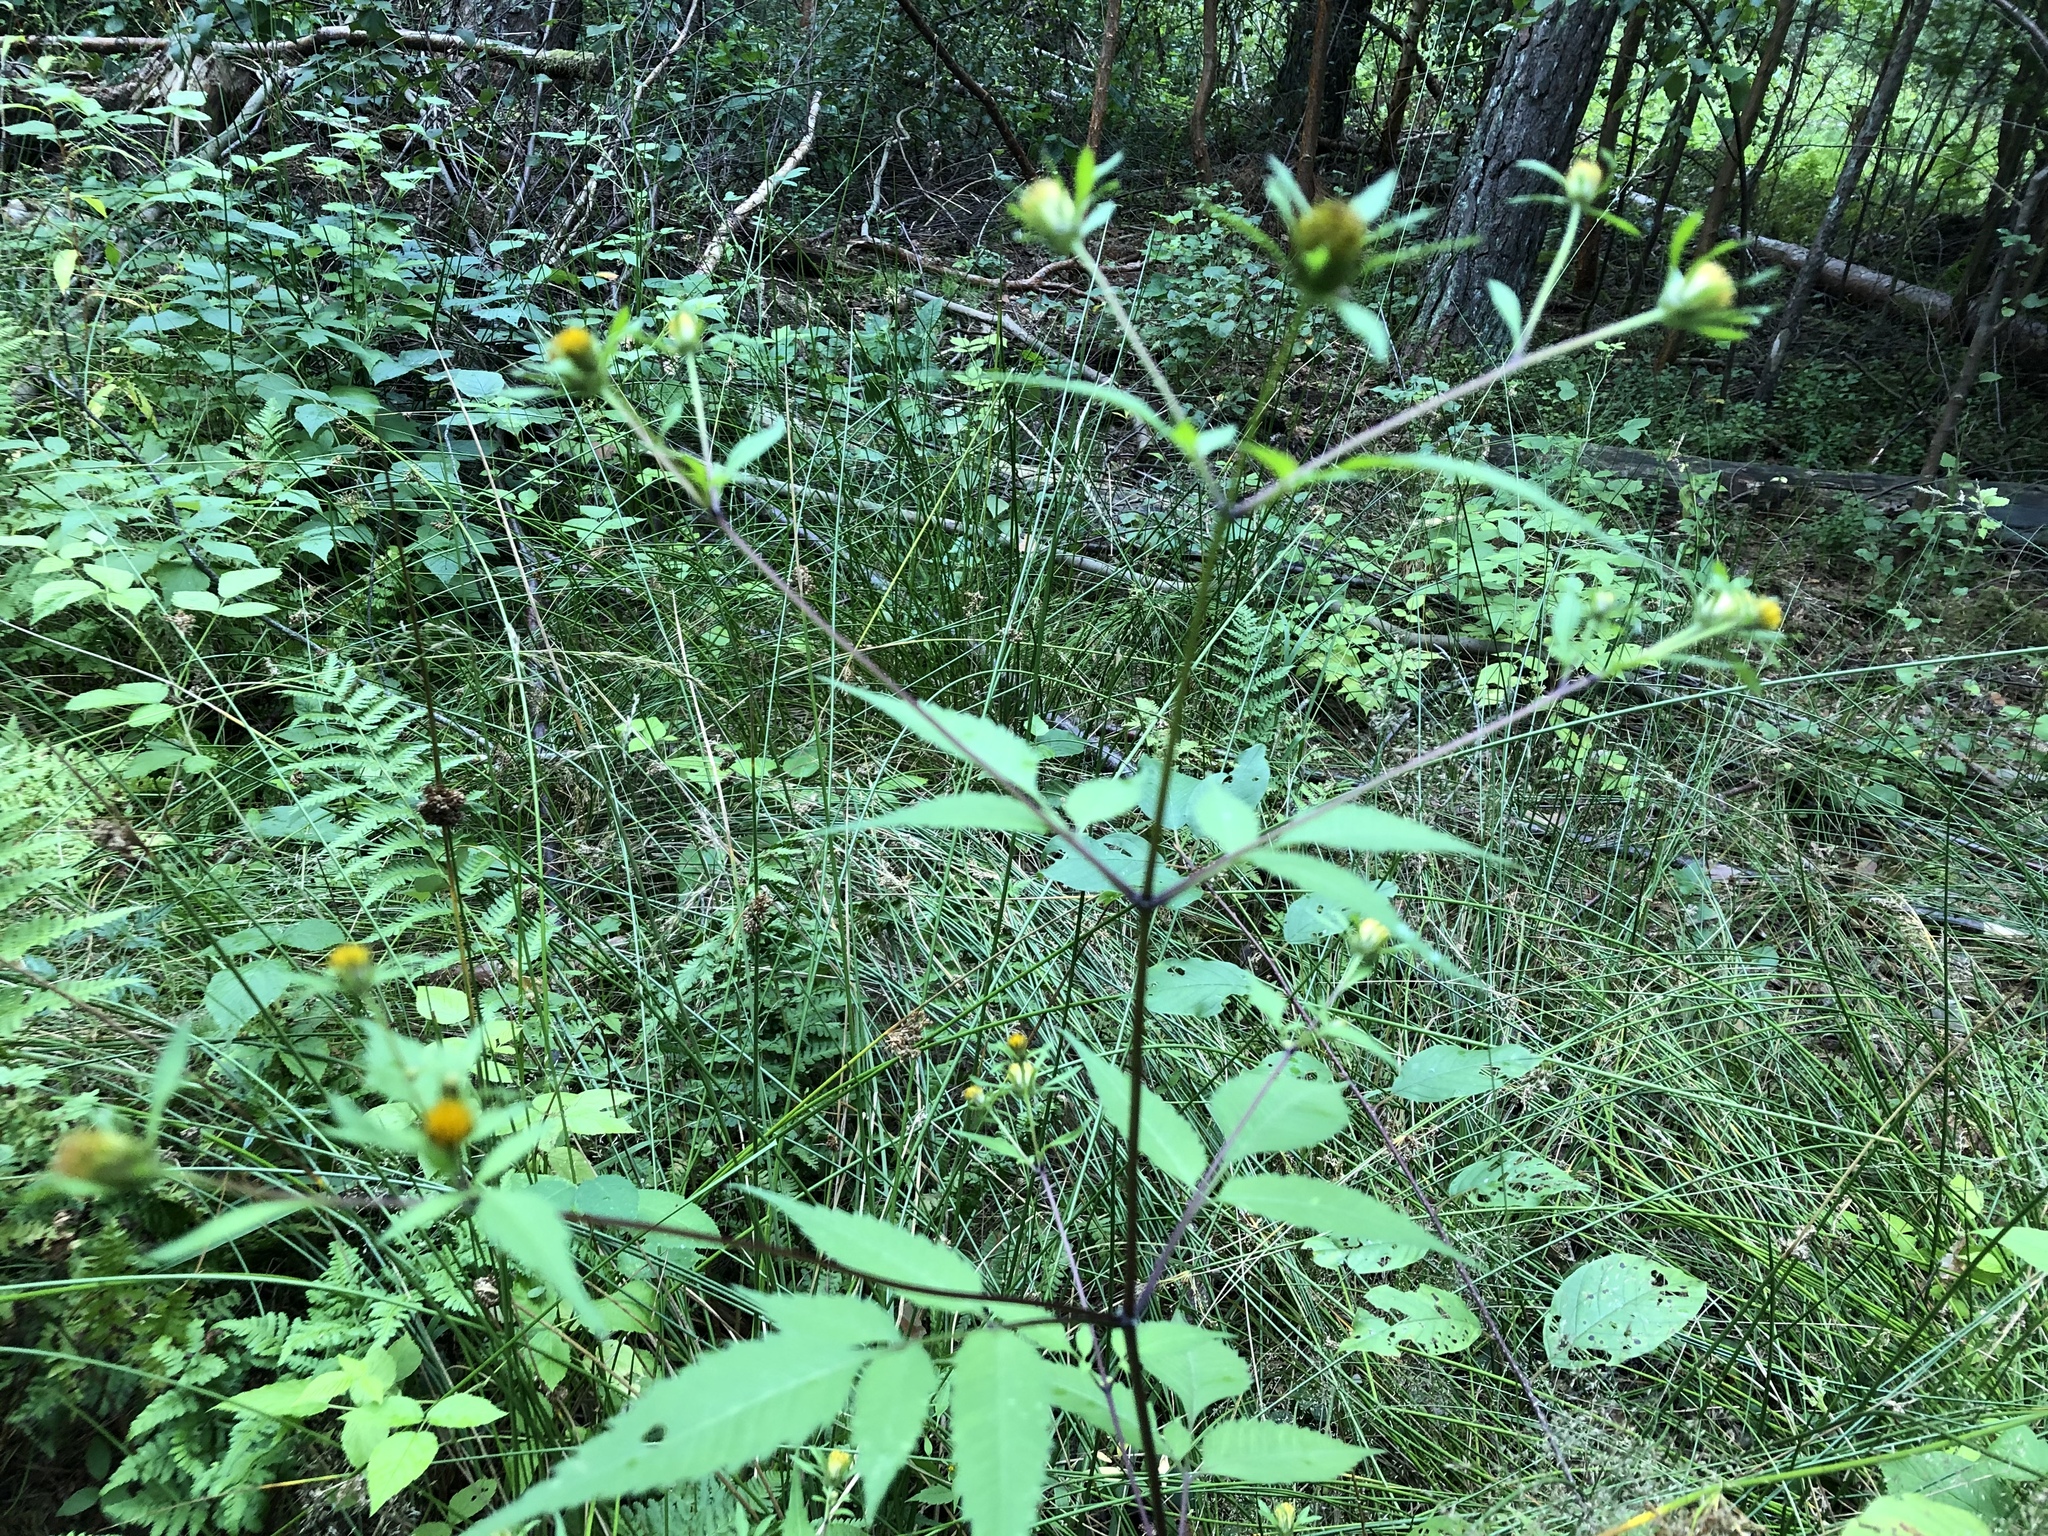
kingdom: Plantae
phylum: Tracheophyta
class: Magnoliopsida
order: Asterales
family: Asteraceae
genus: Bidens
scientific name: Bidens frondosa
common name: Beggarticks
